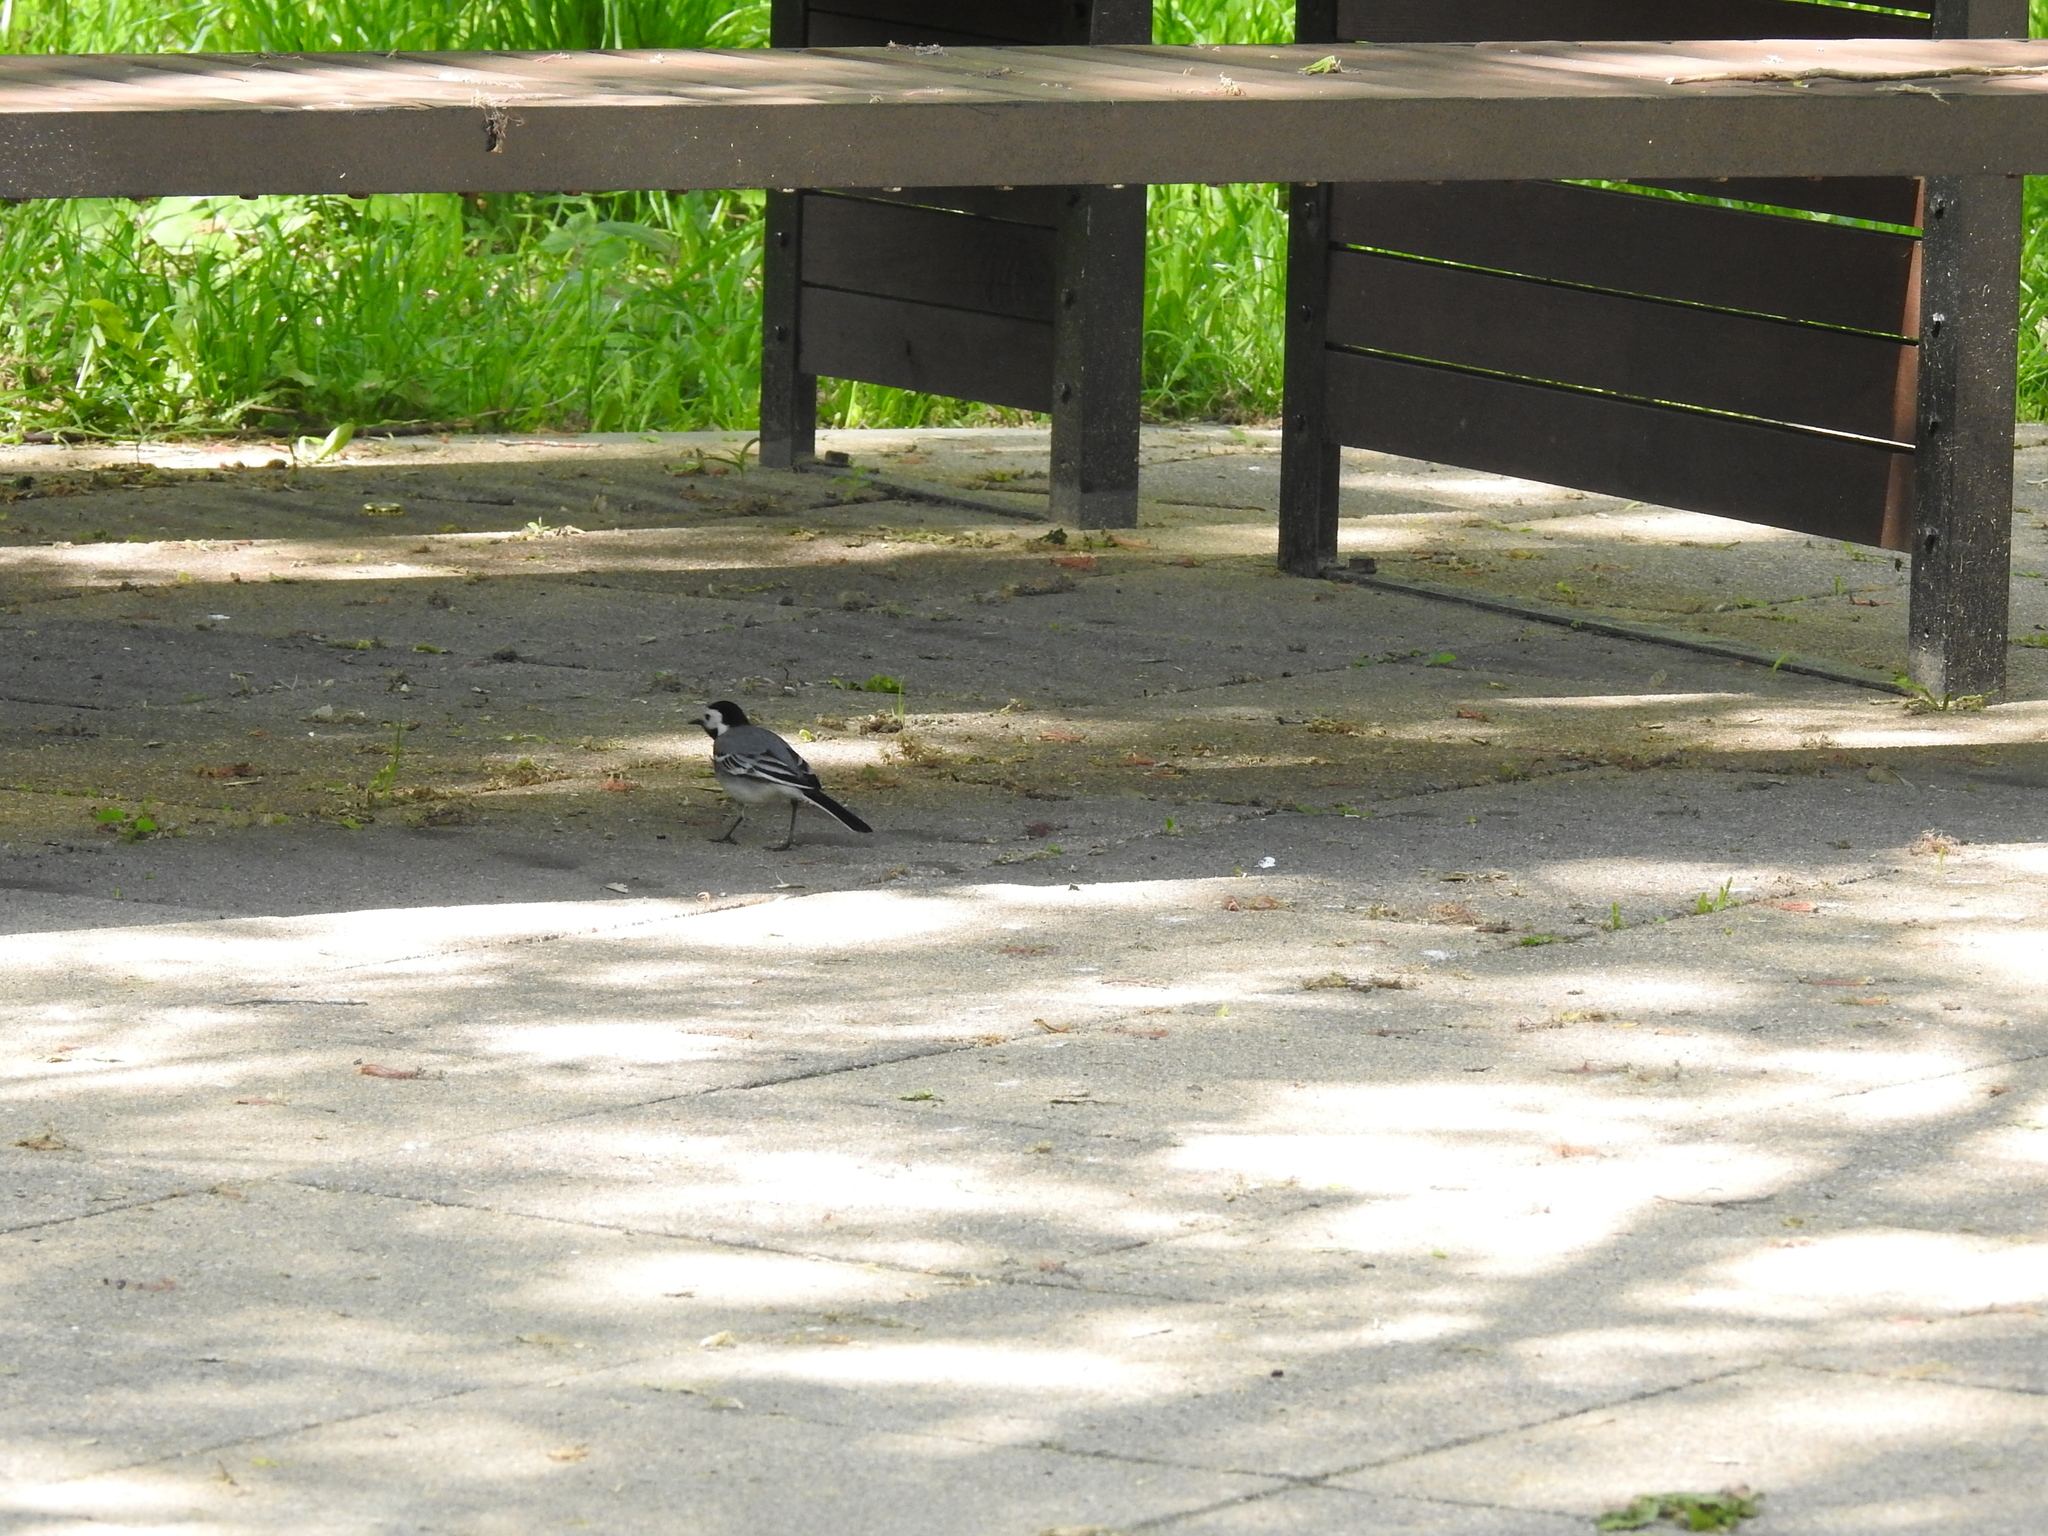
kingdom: Animalia
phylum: Chordata
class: Aves
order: Passeriformes
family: Motacillidae
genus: Motacilla
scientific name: Motacilla alba
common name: White wagtail
